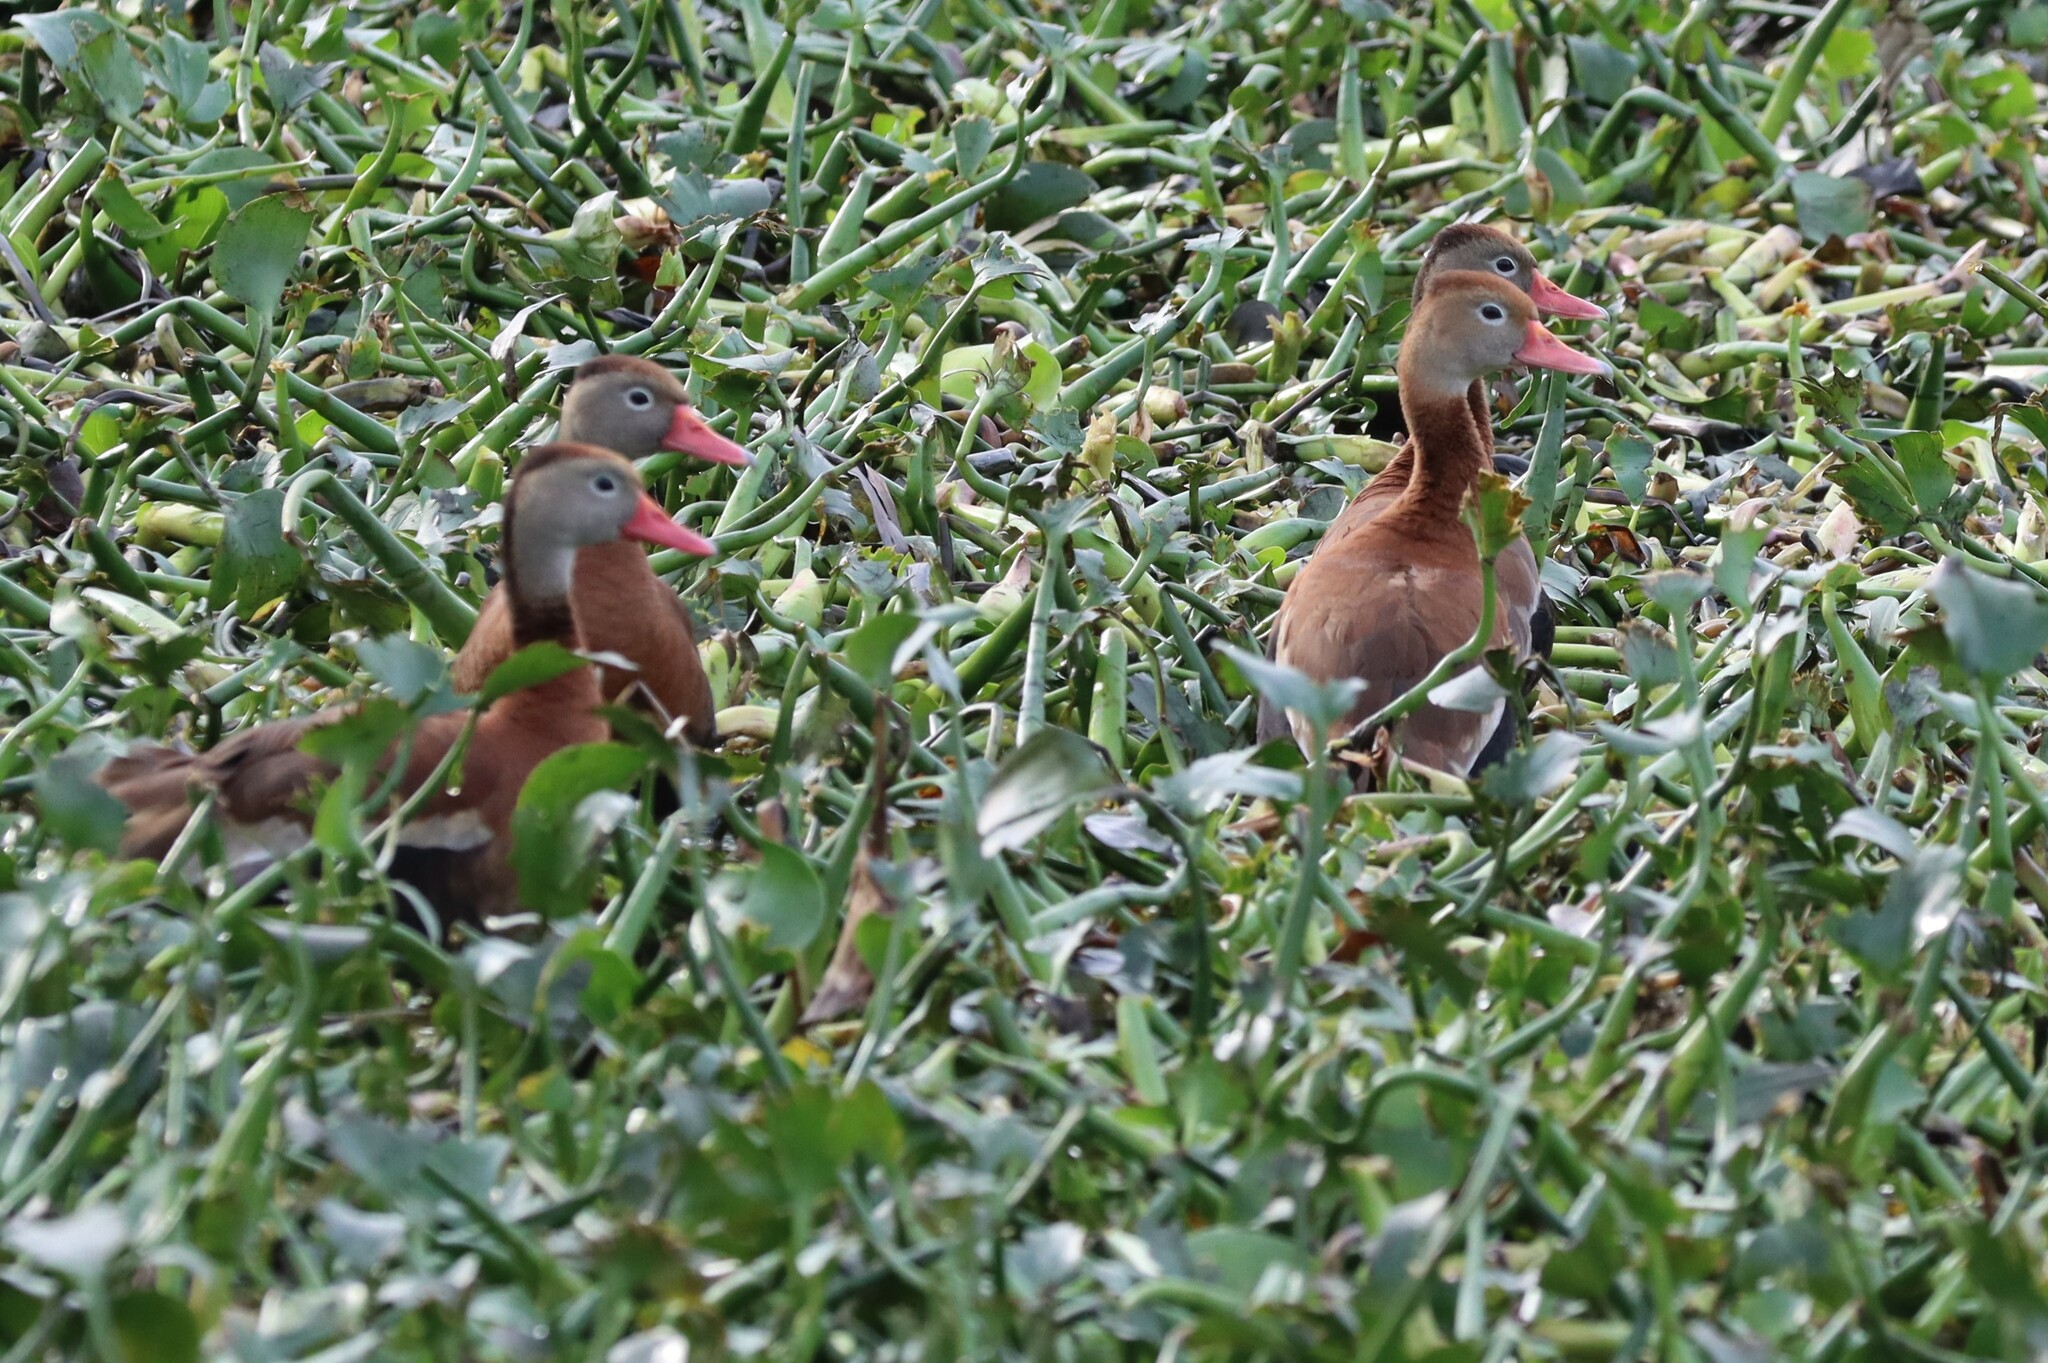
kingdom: Animalia
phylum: Chordata
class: Aves
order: Anseriformes
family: Anatidae
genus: Dendrocygna
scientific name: Dendrocygna autumnalis
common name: Black-bellied whistling duck
